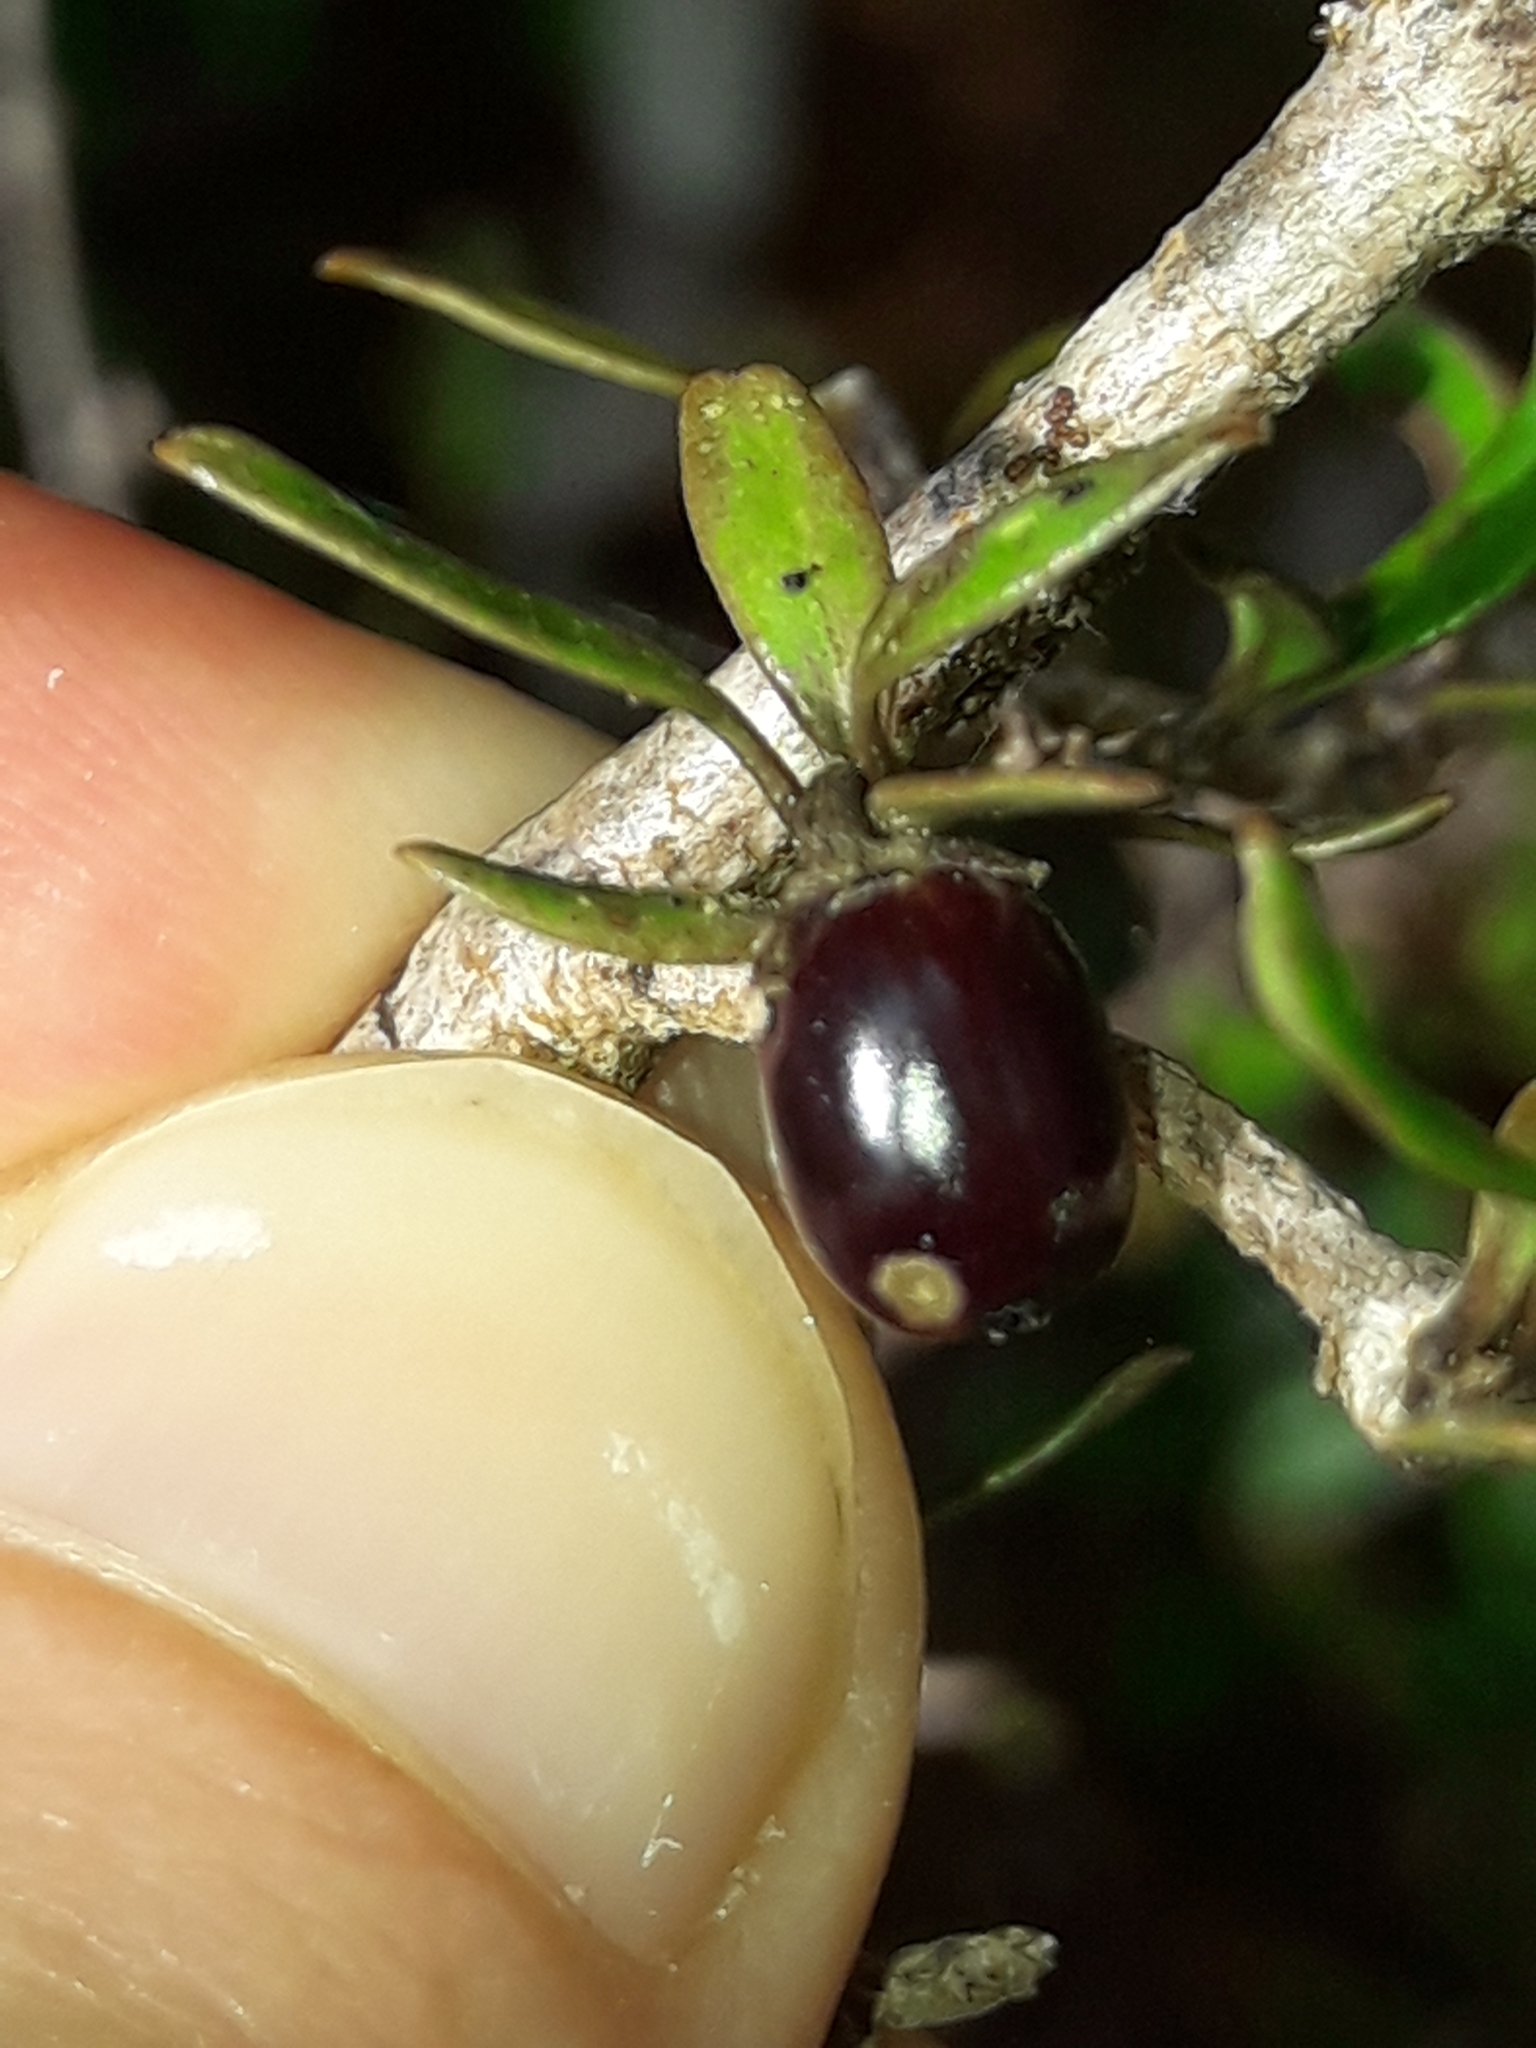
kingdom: Plantae
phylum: Tracheophyta
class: Magnoliopsida
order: Gentianales
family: Rubiaceae
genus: Coprosma
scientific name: Coprosma colensoi
